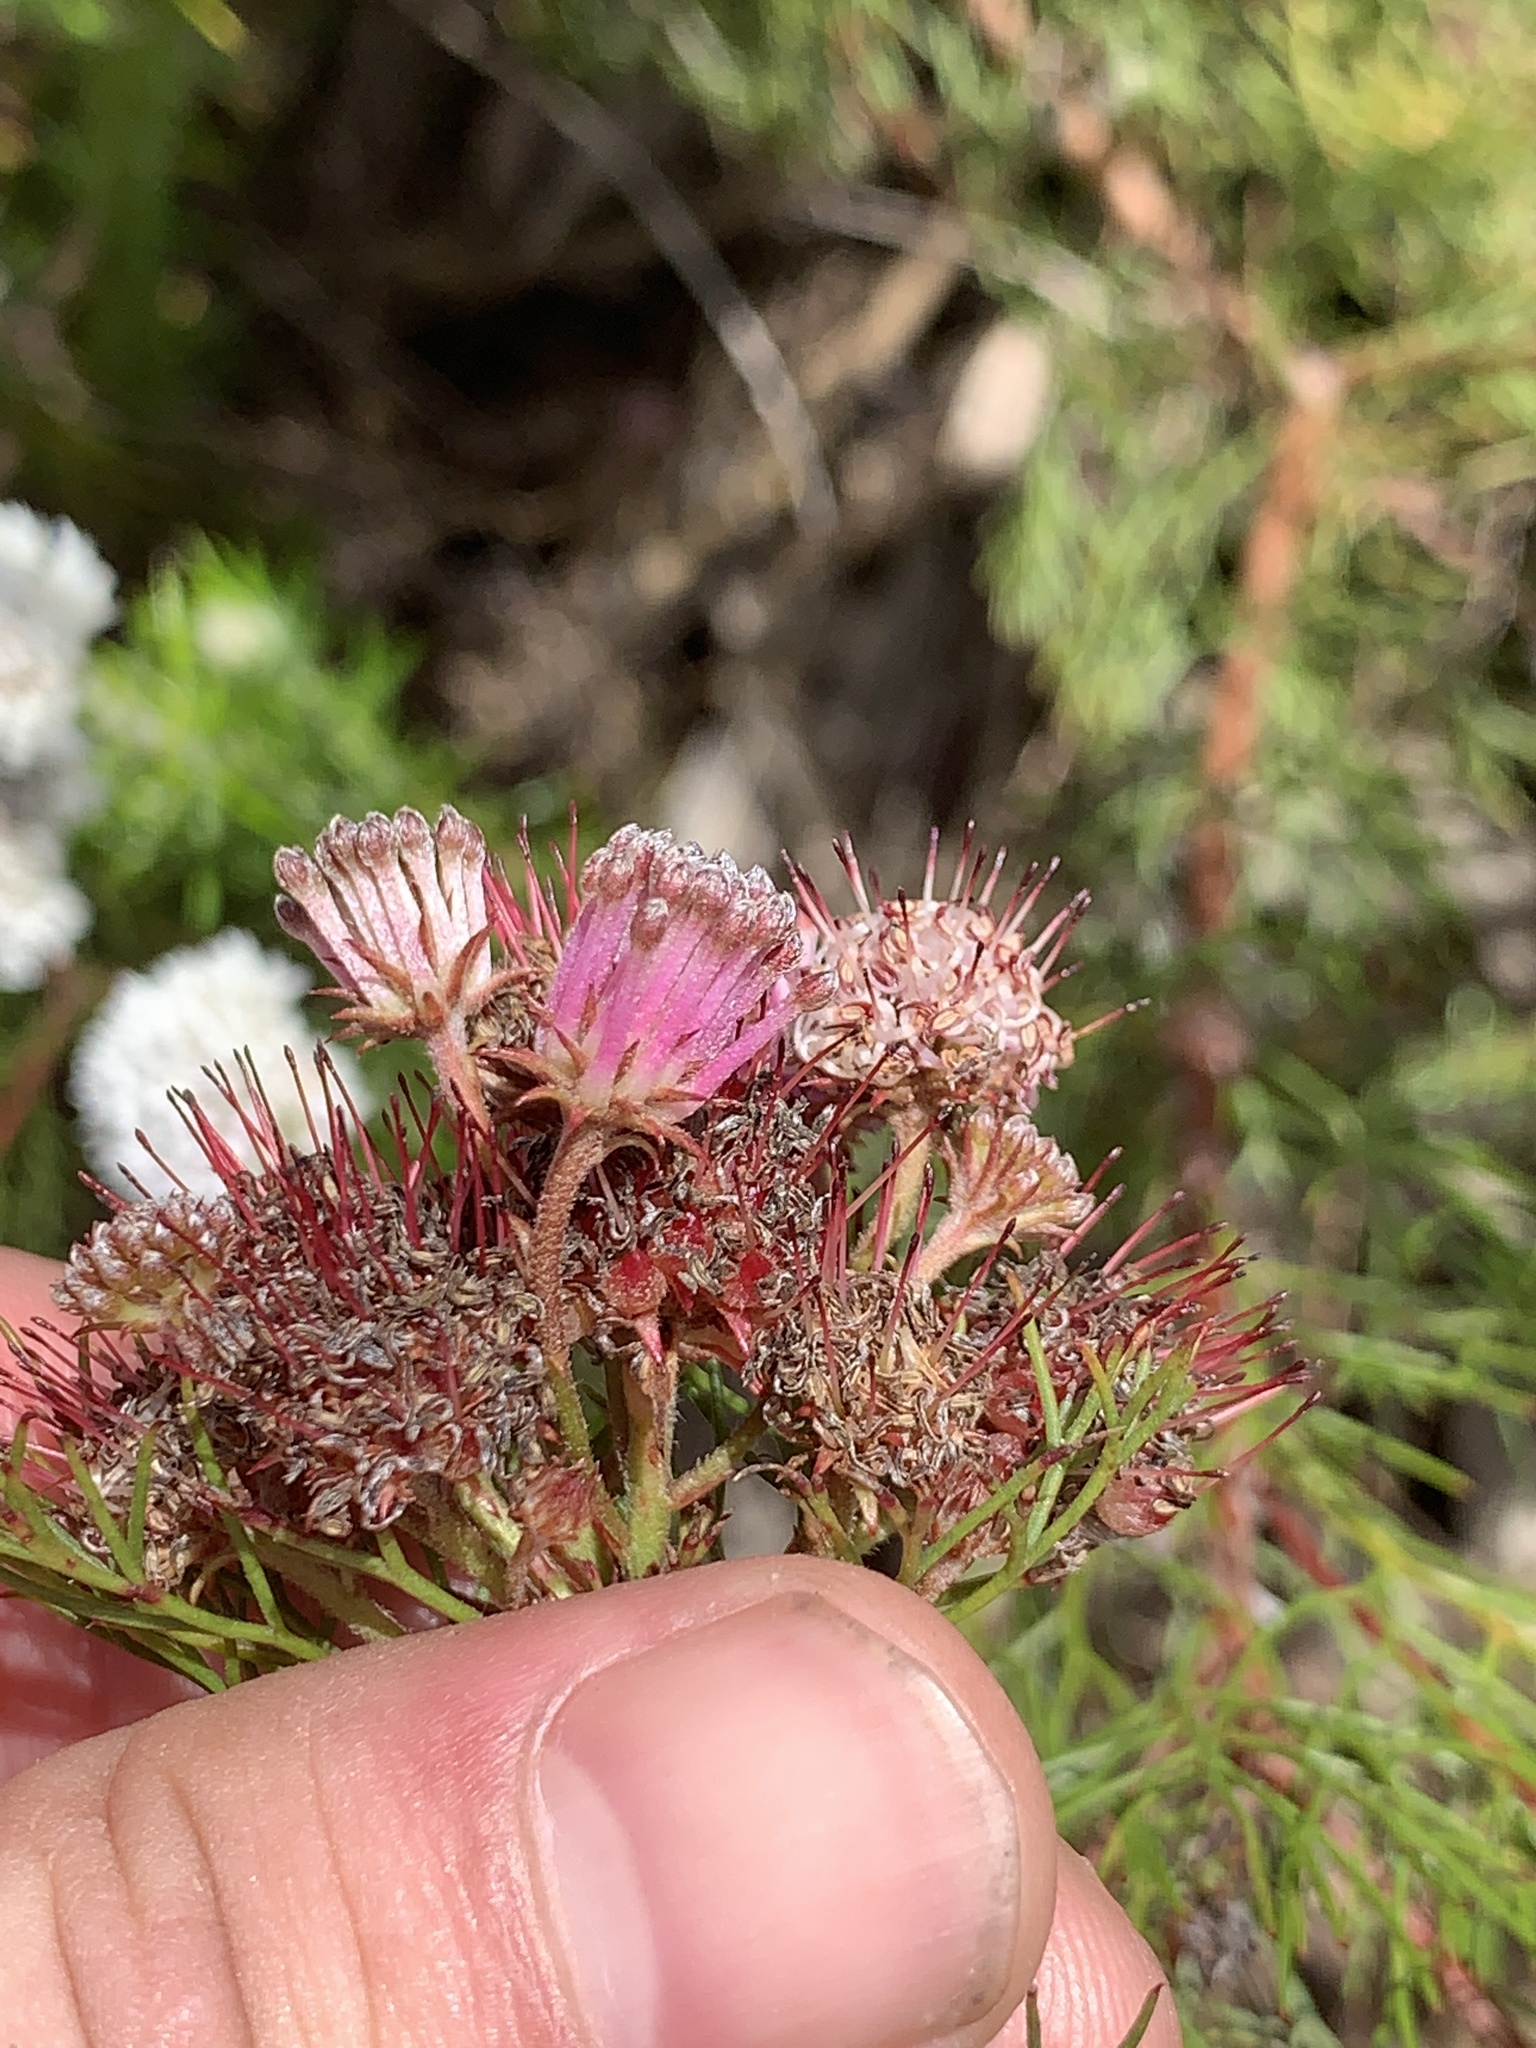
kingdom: Plantae
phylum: Tracheophyta
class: Magnoliopsida
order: Proteales
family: Proteaceae
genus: Serruria
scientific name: Serruria fasciflora
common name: Common pin spiderhead
